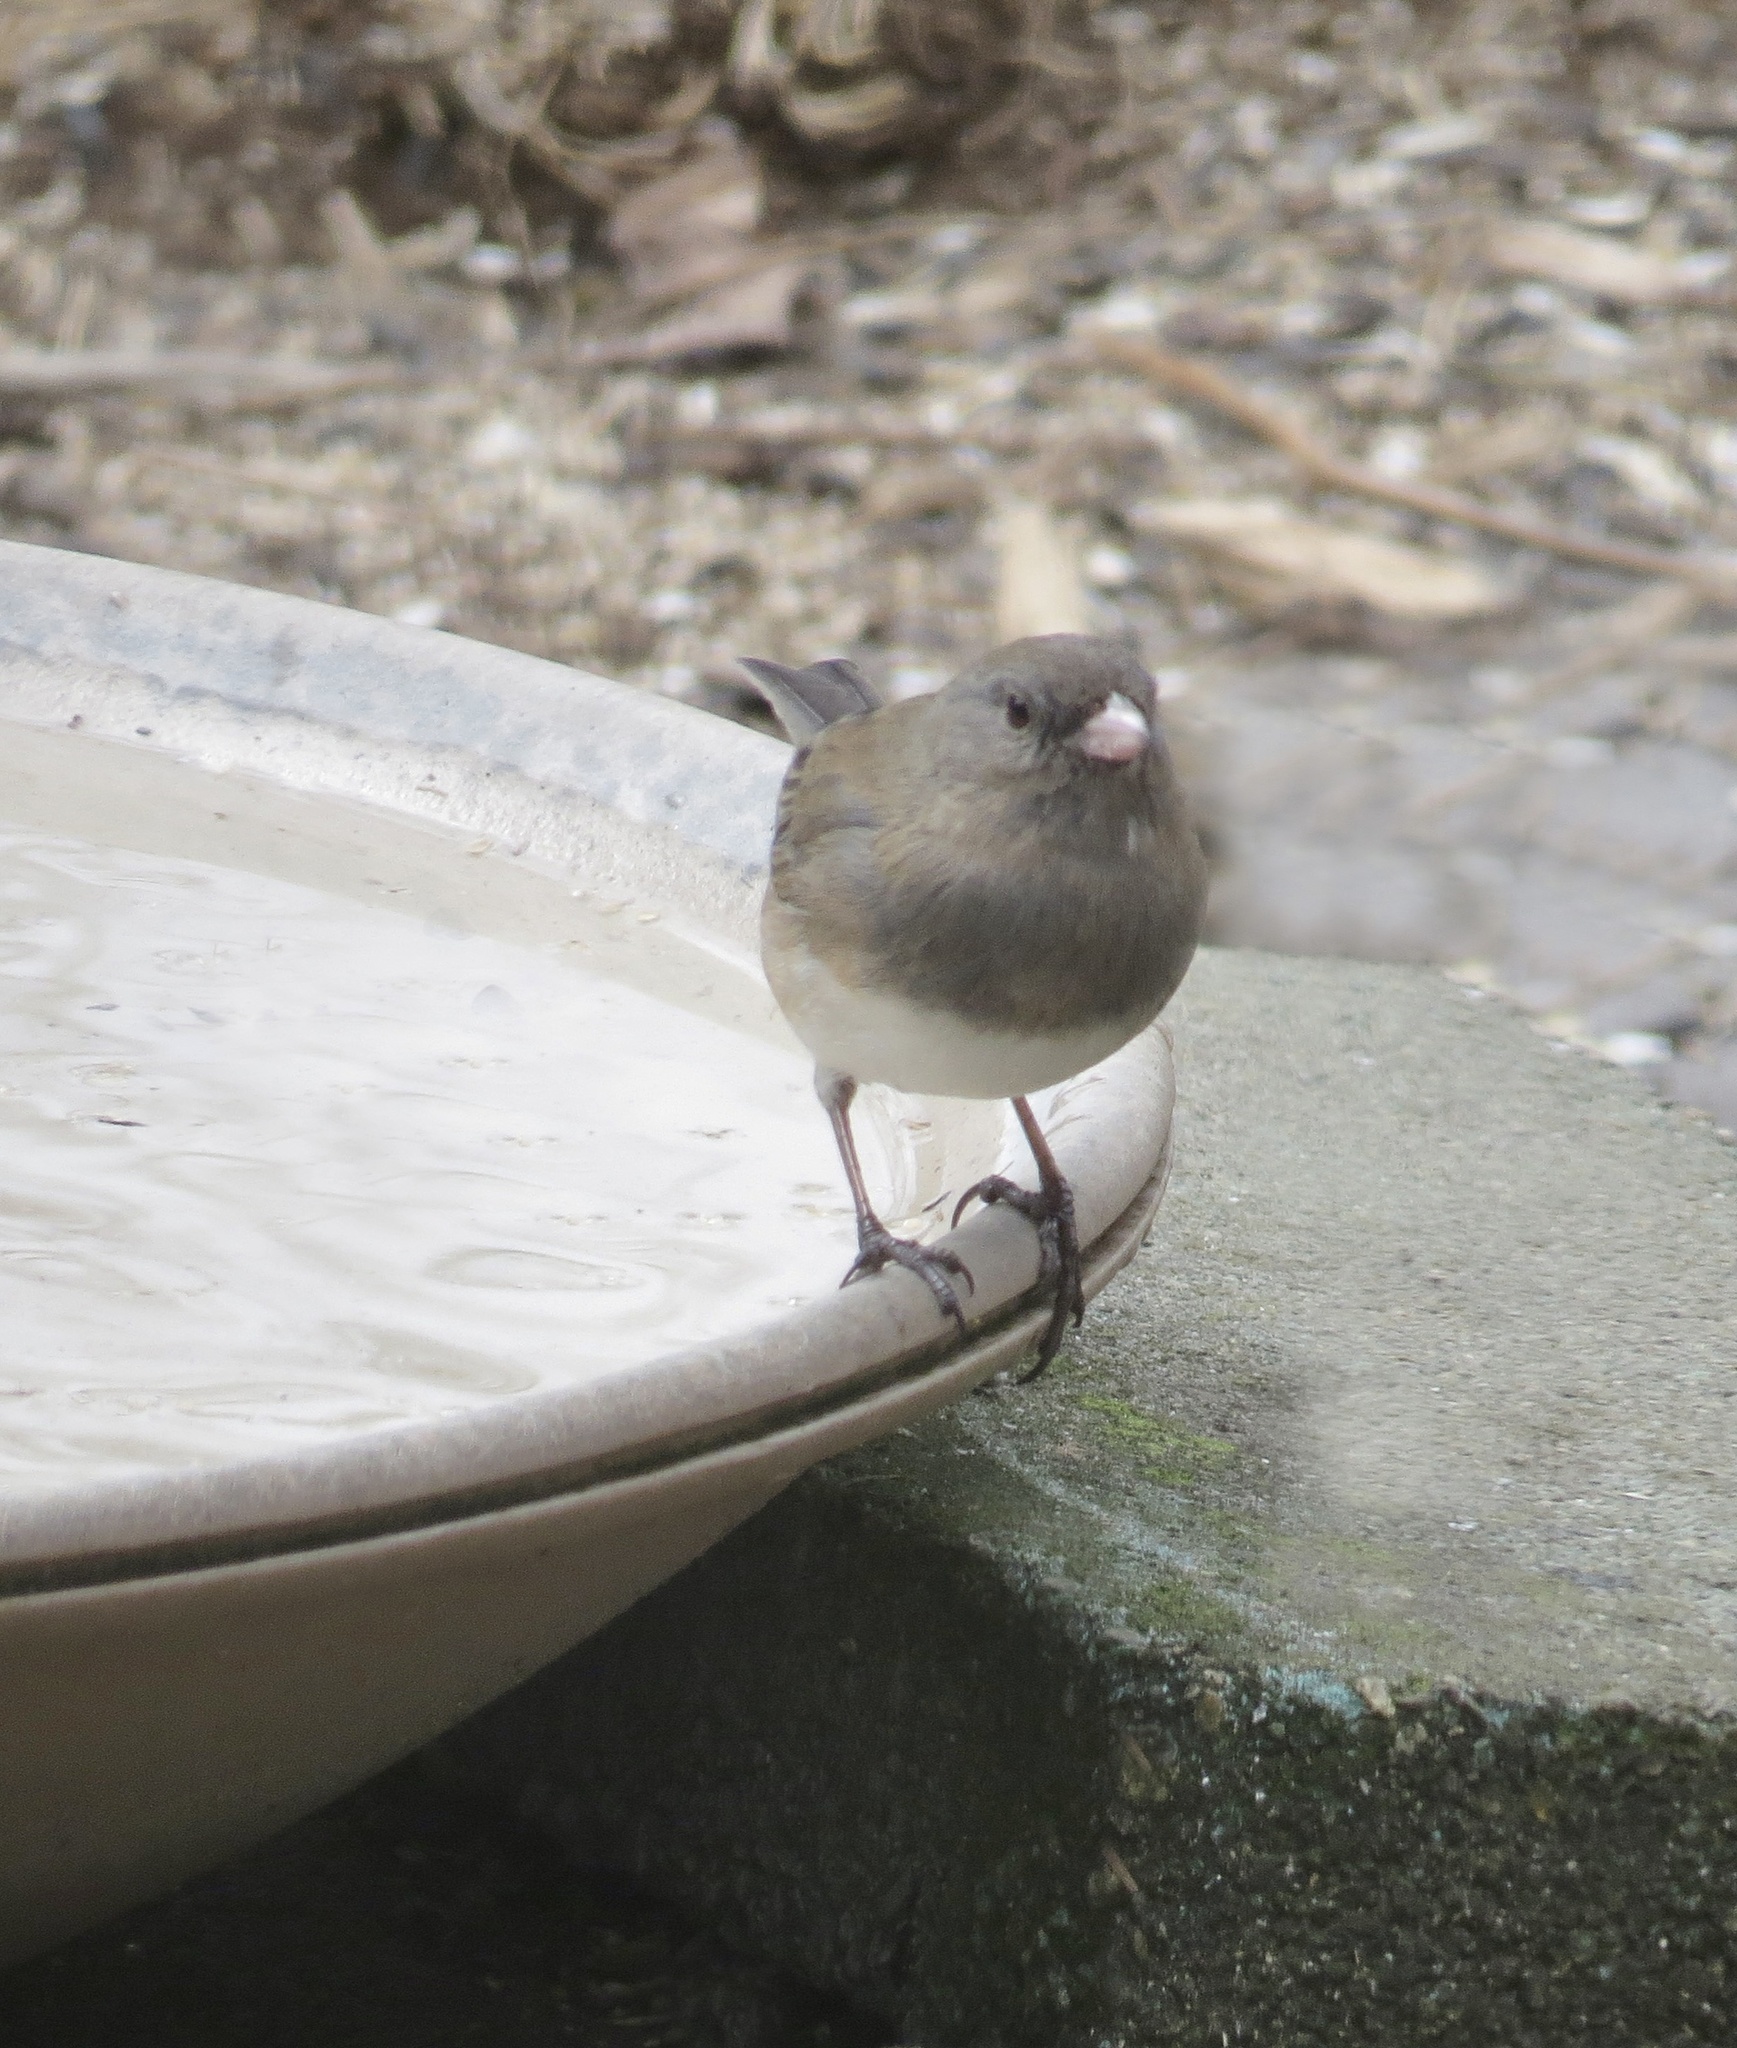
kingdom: Animalia
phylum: Chordata
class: Aves
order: Passeriformes
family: Passerellidae
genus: Junco
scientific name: Junco hyemalis
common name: Dark-eyed junco
